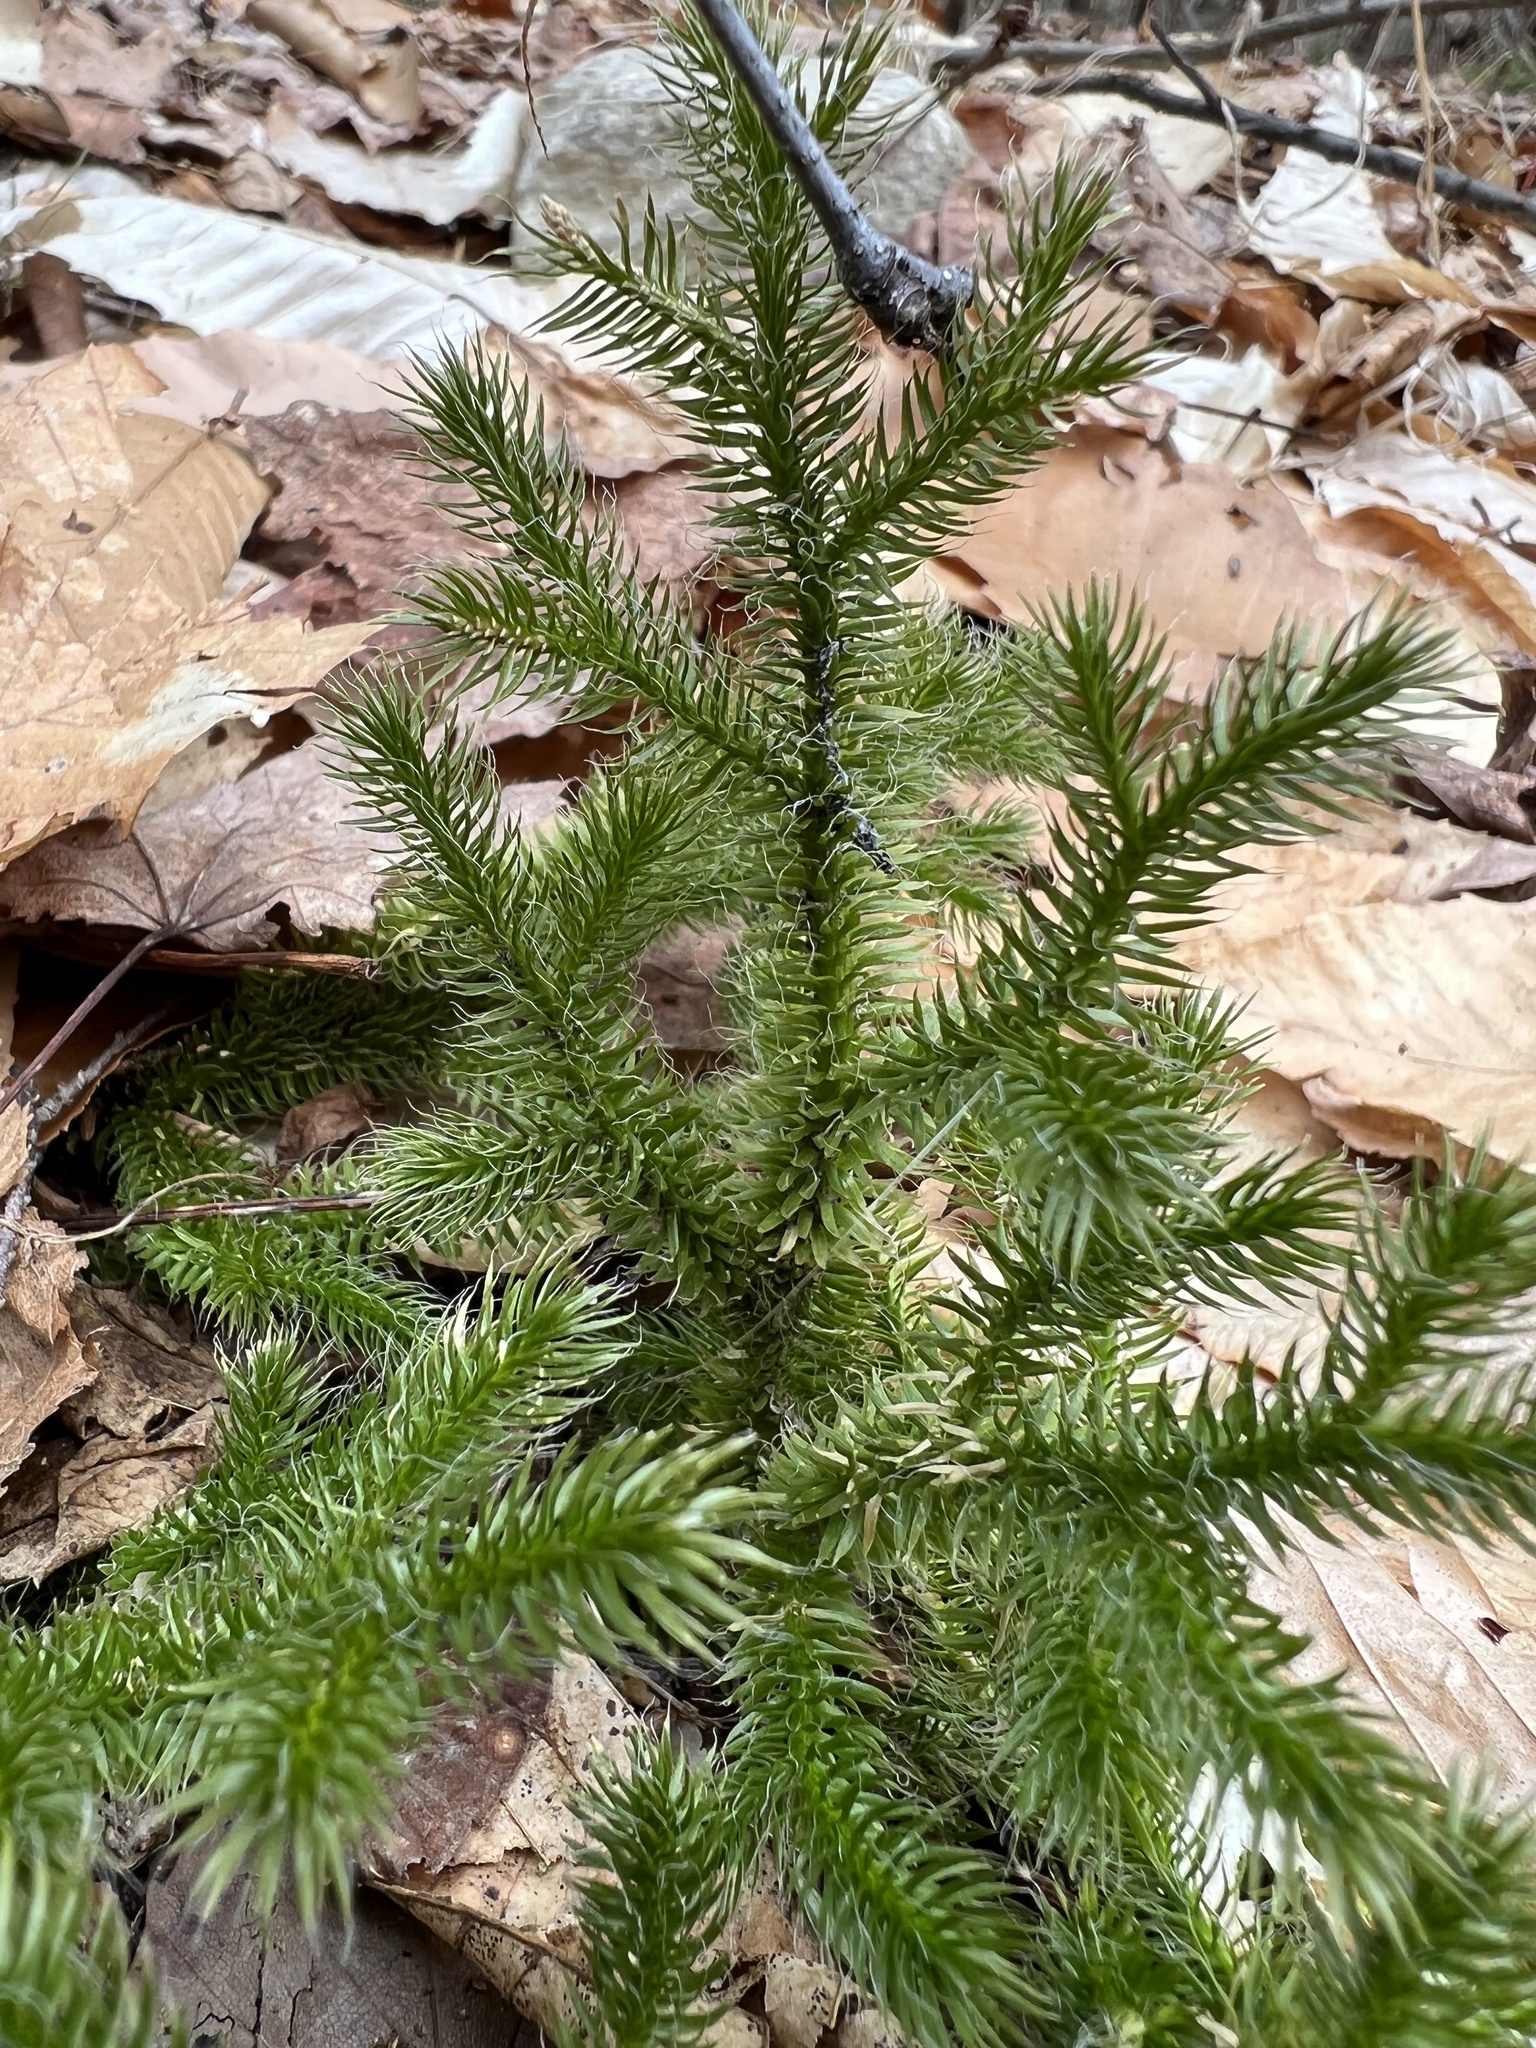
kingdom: Plantae
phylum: Tracheophyta
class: Lycopodiopsida
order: Lycopodiales
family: Lycopodiaceae
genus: Lycopodium
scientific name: Lycopodium clavatum
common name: Stag's-horn clubmoss
